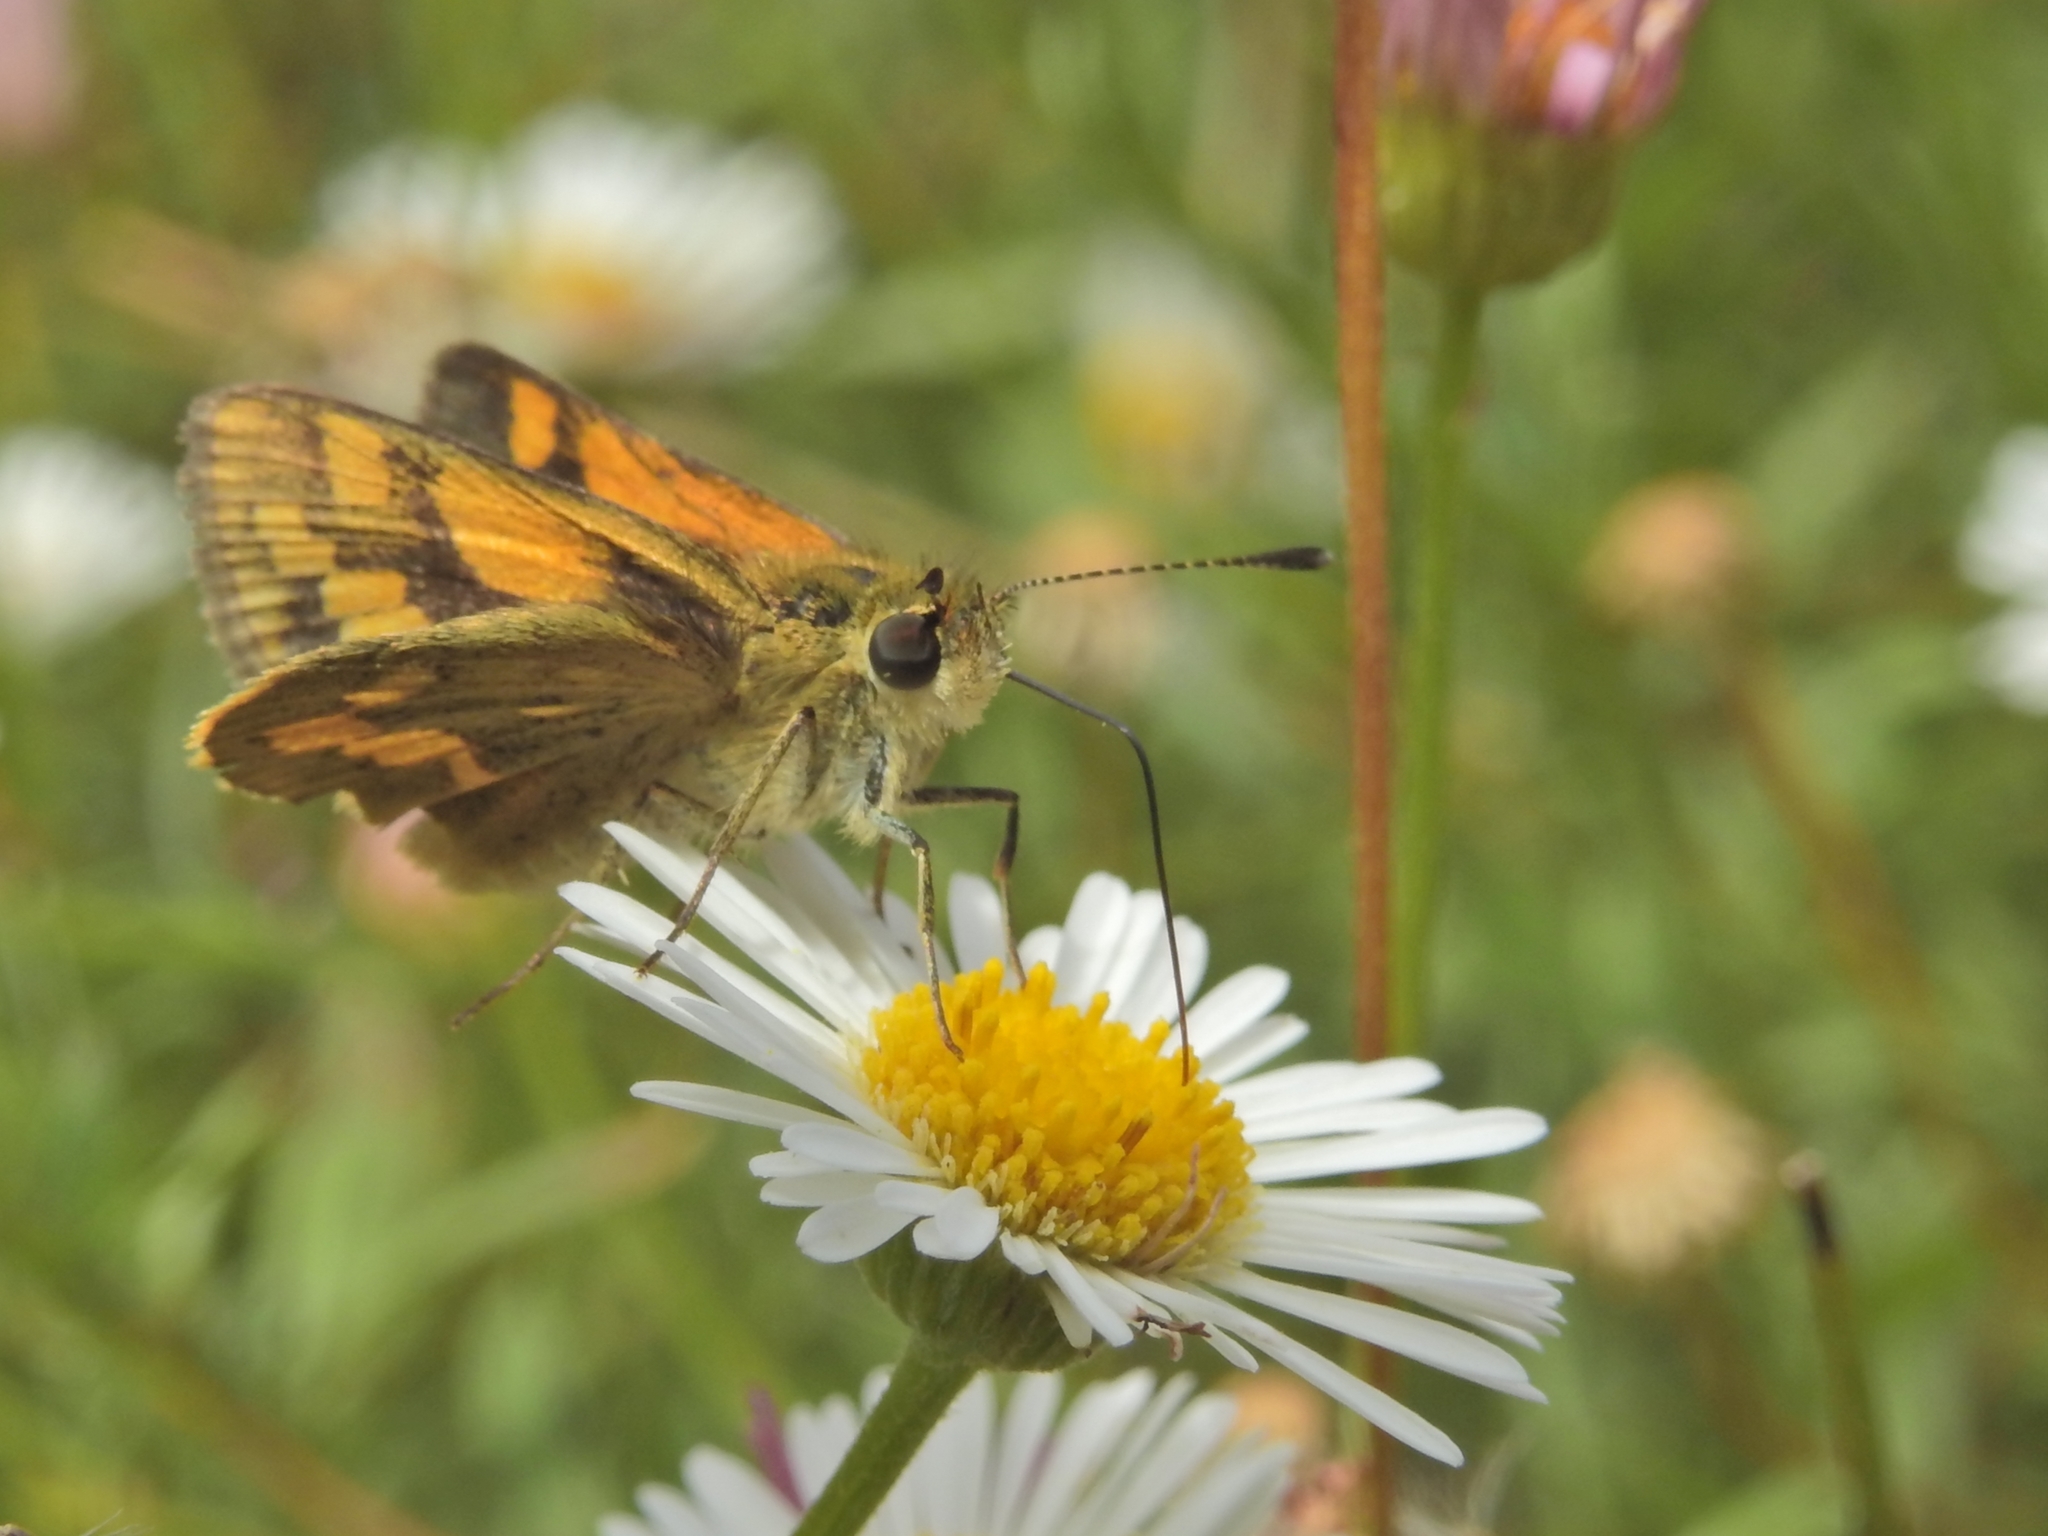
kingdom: Animalia
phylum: Arthropoda
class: Insecta
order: Lepidoptera
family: Hesperiidae
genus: Ocybadistes
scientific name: Ocybadistes walkeri
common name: Yellow-banded dart
